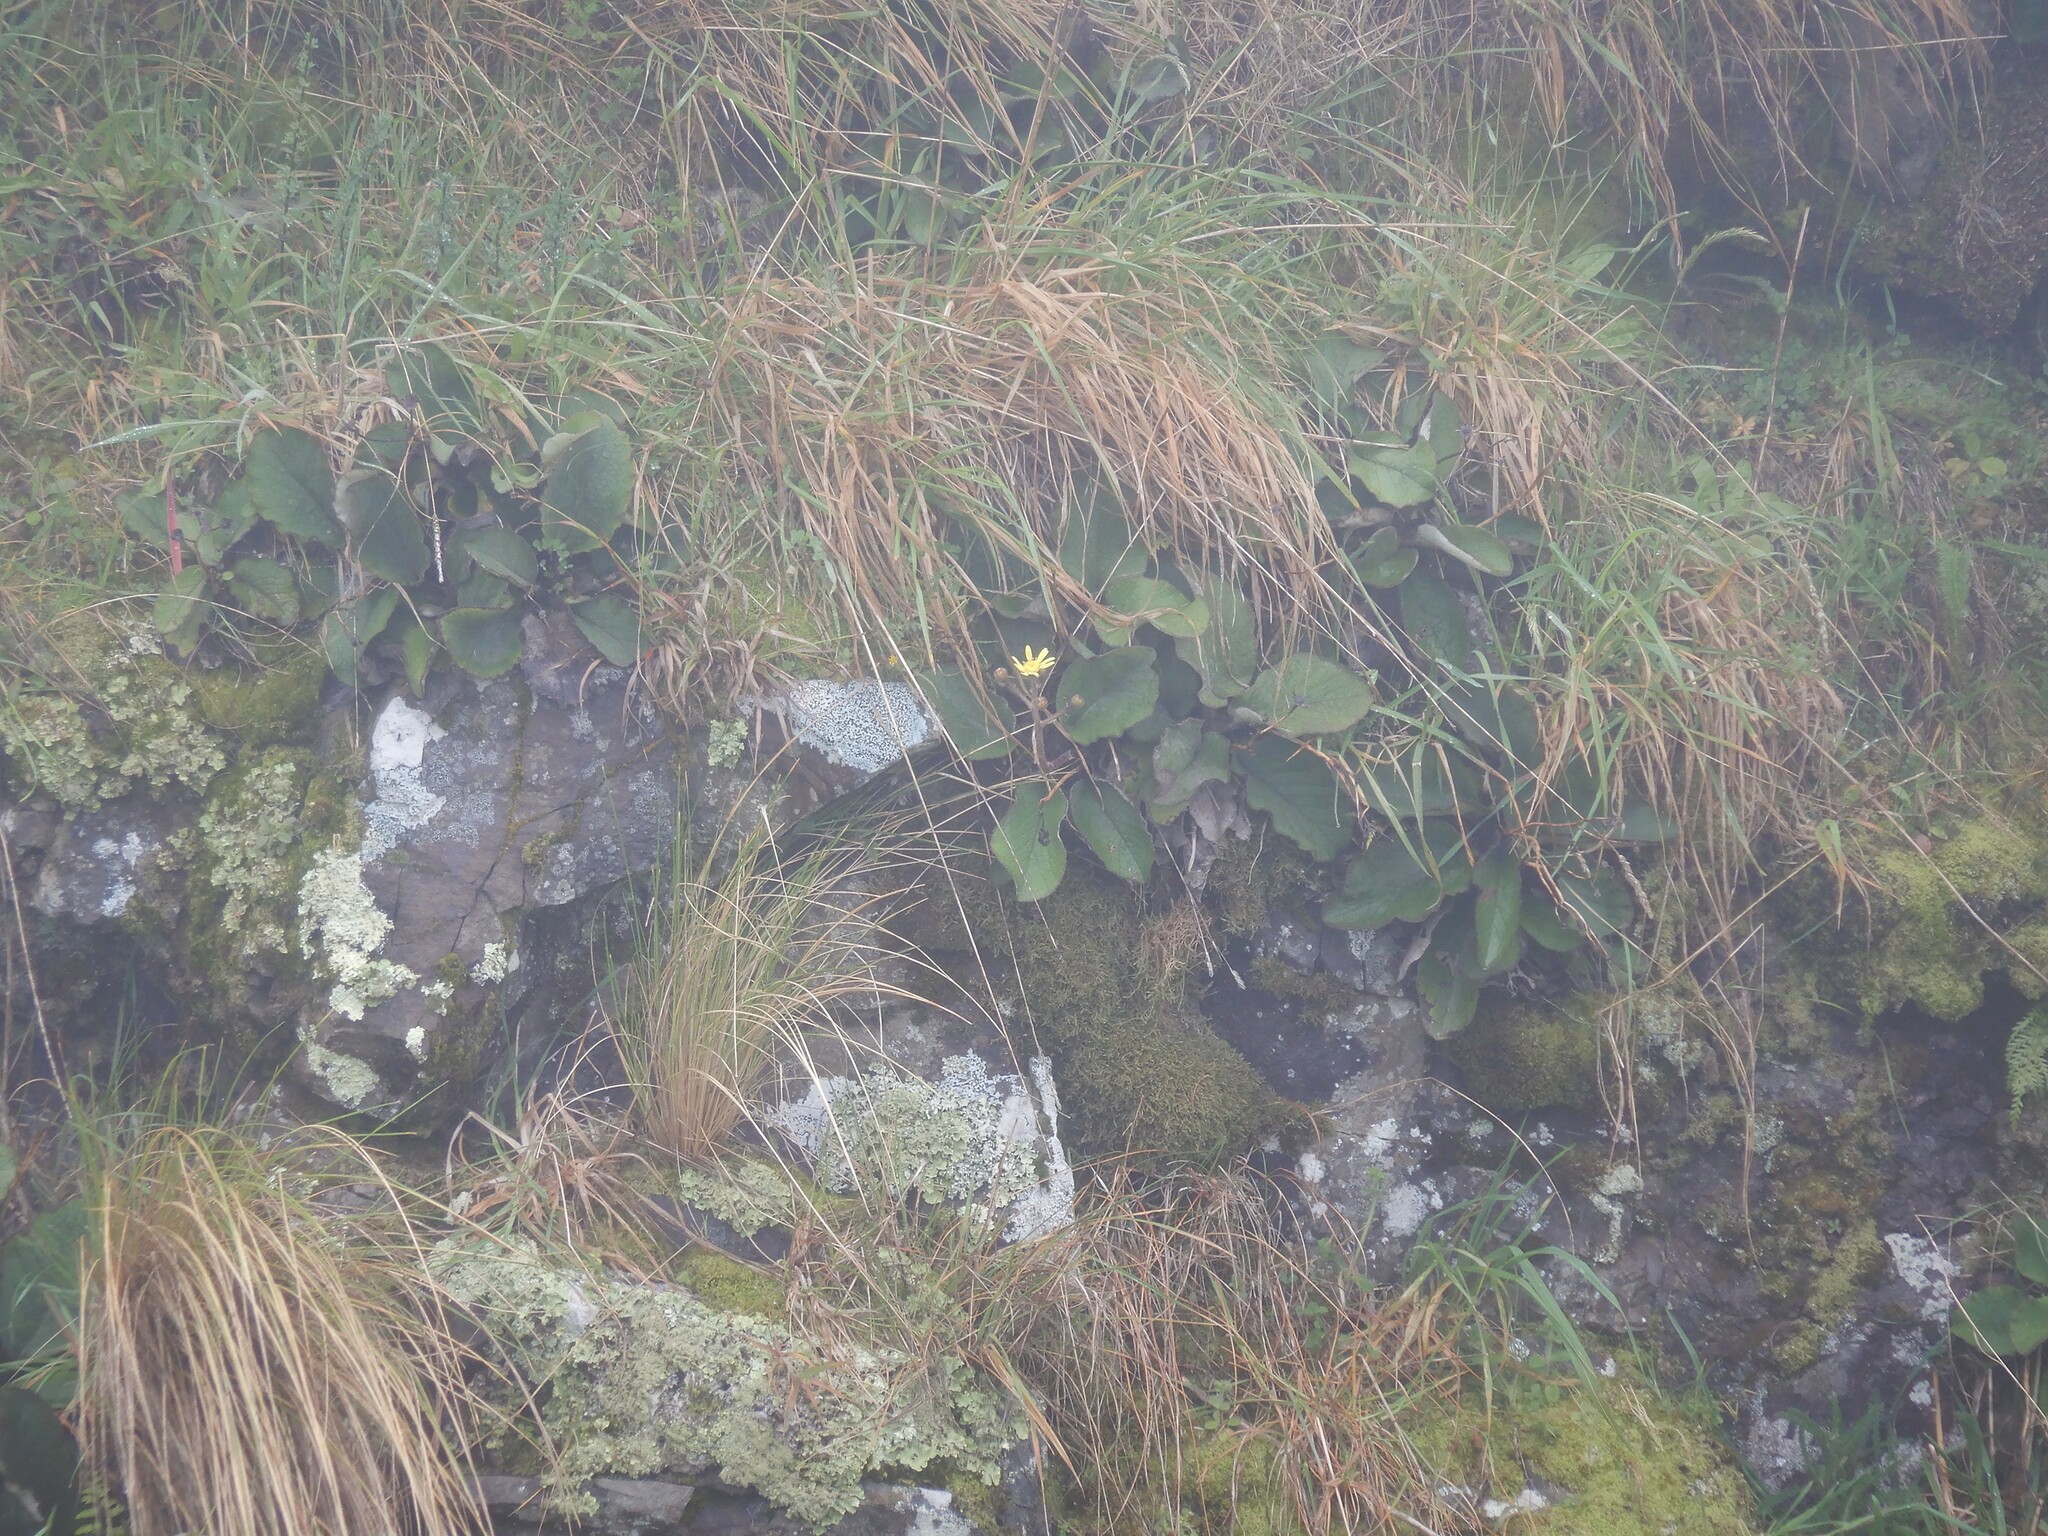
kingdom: Plantae
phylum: Tracheophyta
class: Magnoliopsida
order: Asterales
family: Asteraceae
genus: Brachyglottis
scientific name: Brachyglottis lagopus
